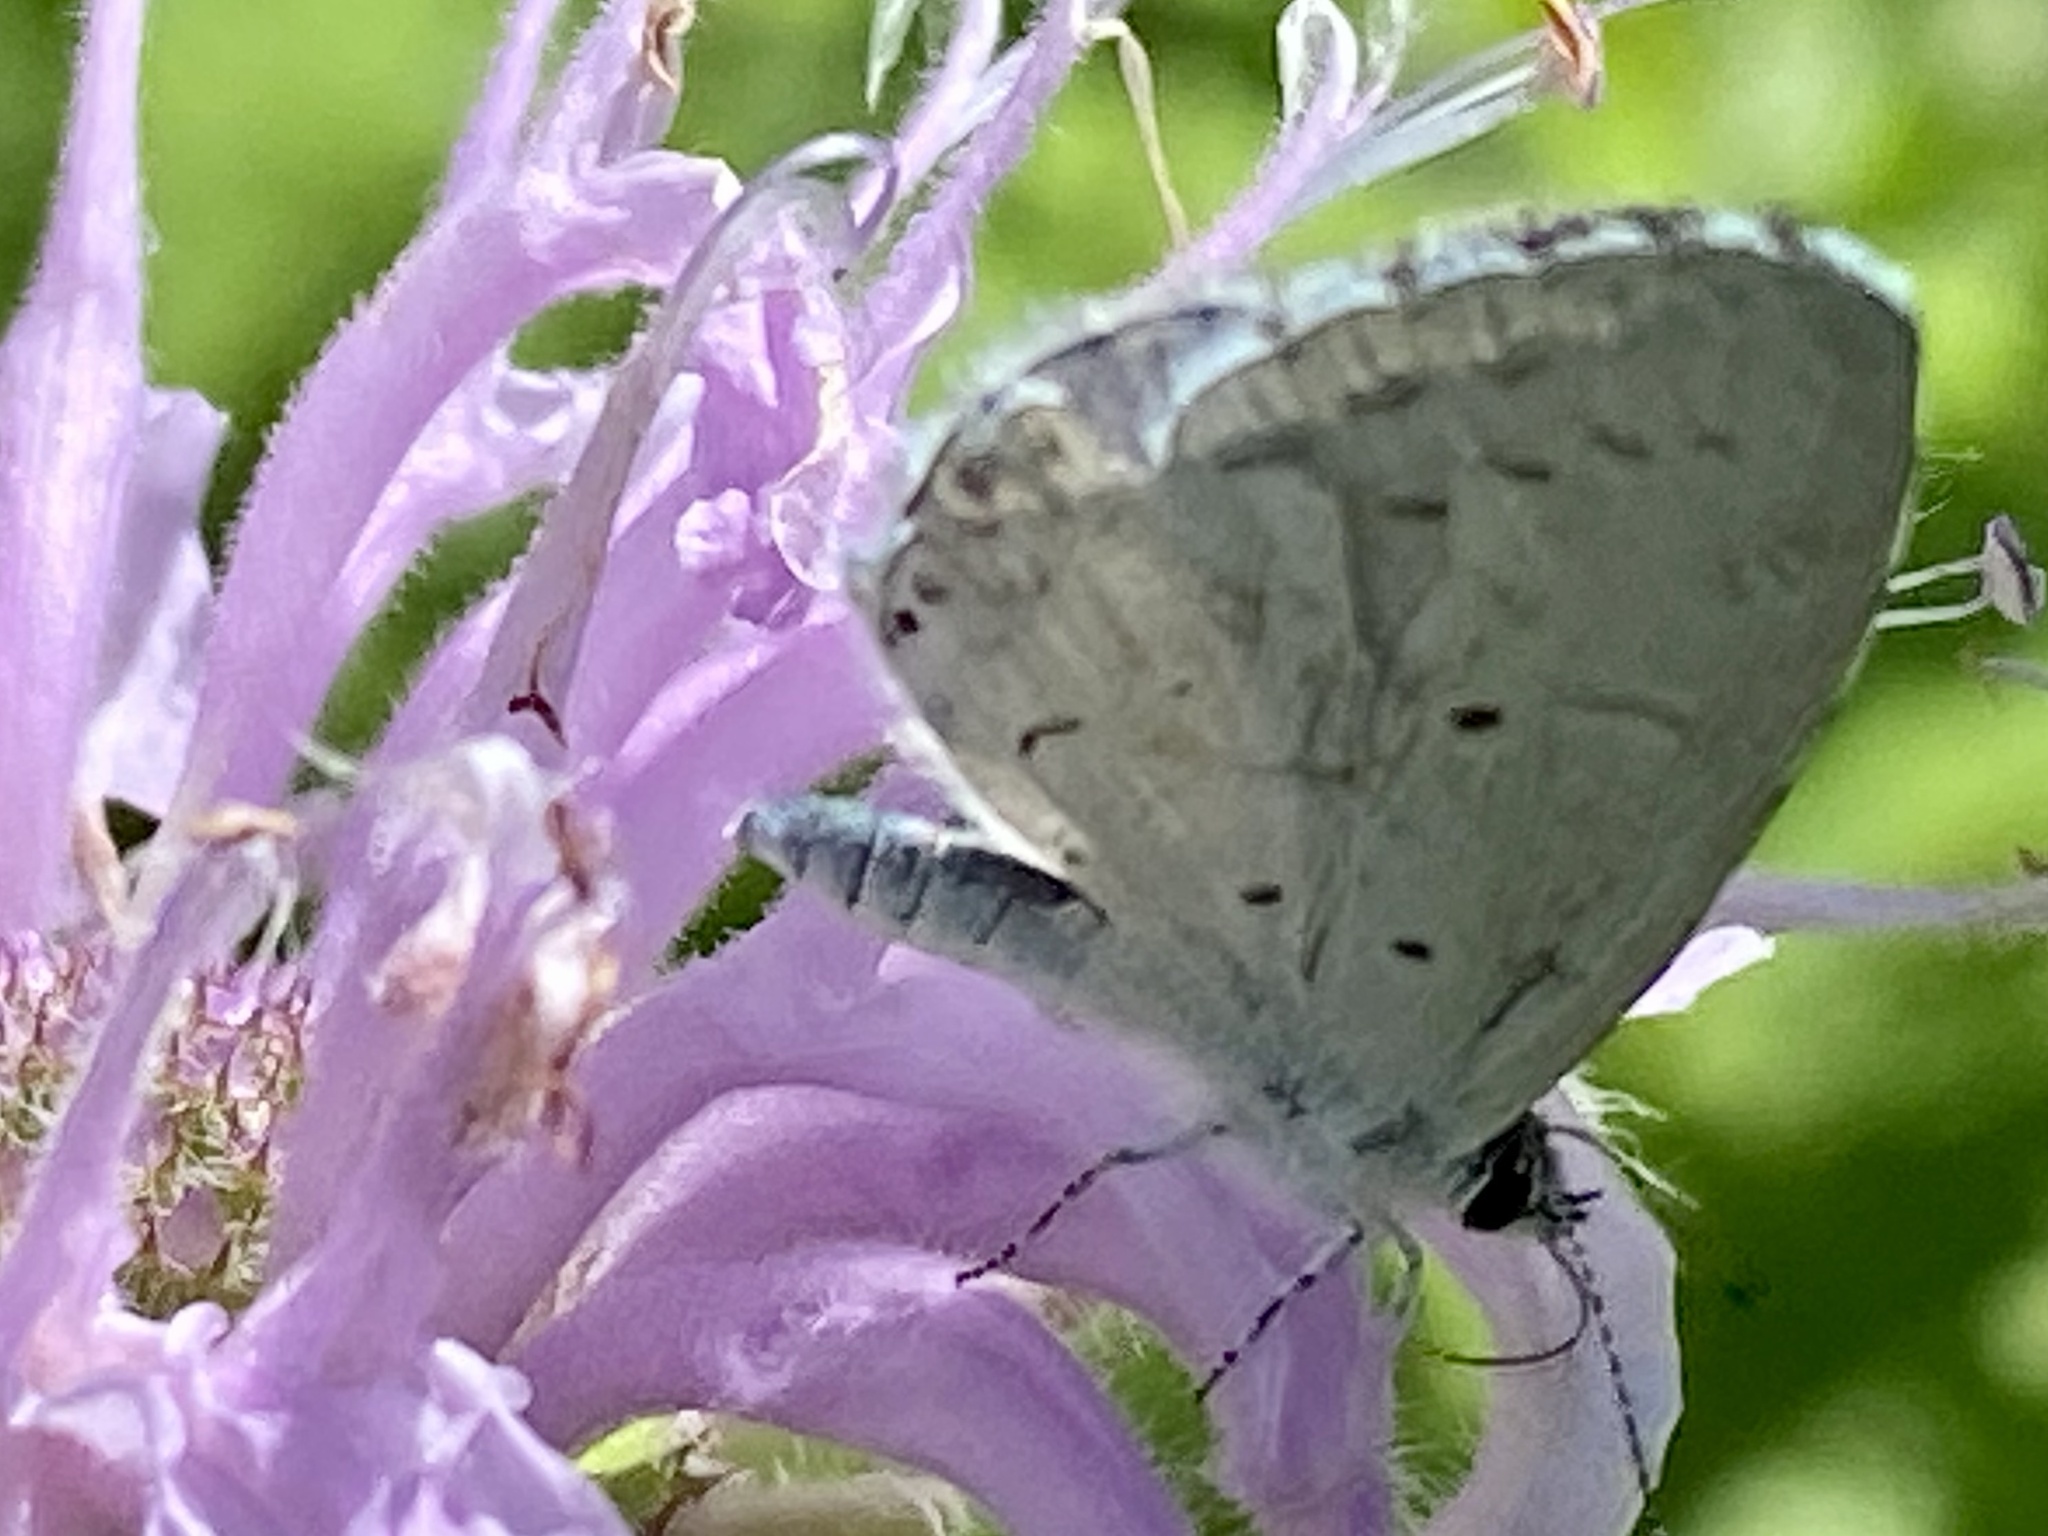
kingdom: Animalia
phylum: Arthropoda
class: Insecta
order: Lepidoptera
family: Lycaenidae
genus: Cyaniris
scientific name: Cyaniris neglecta
